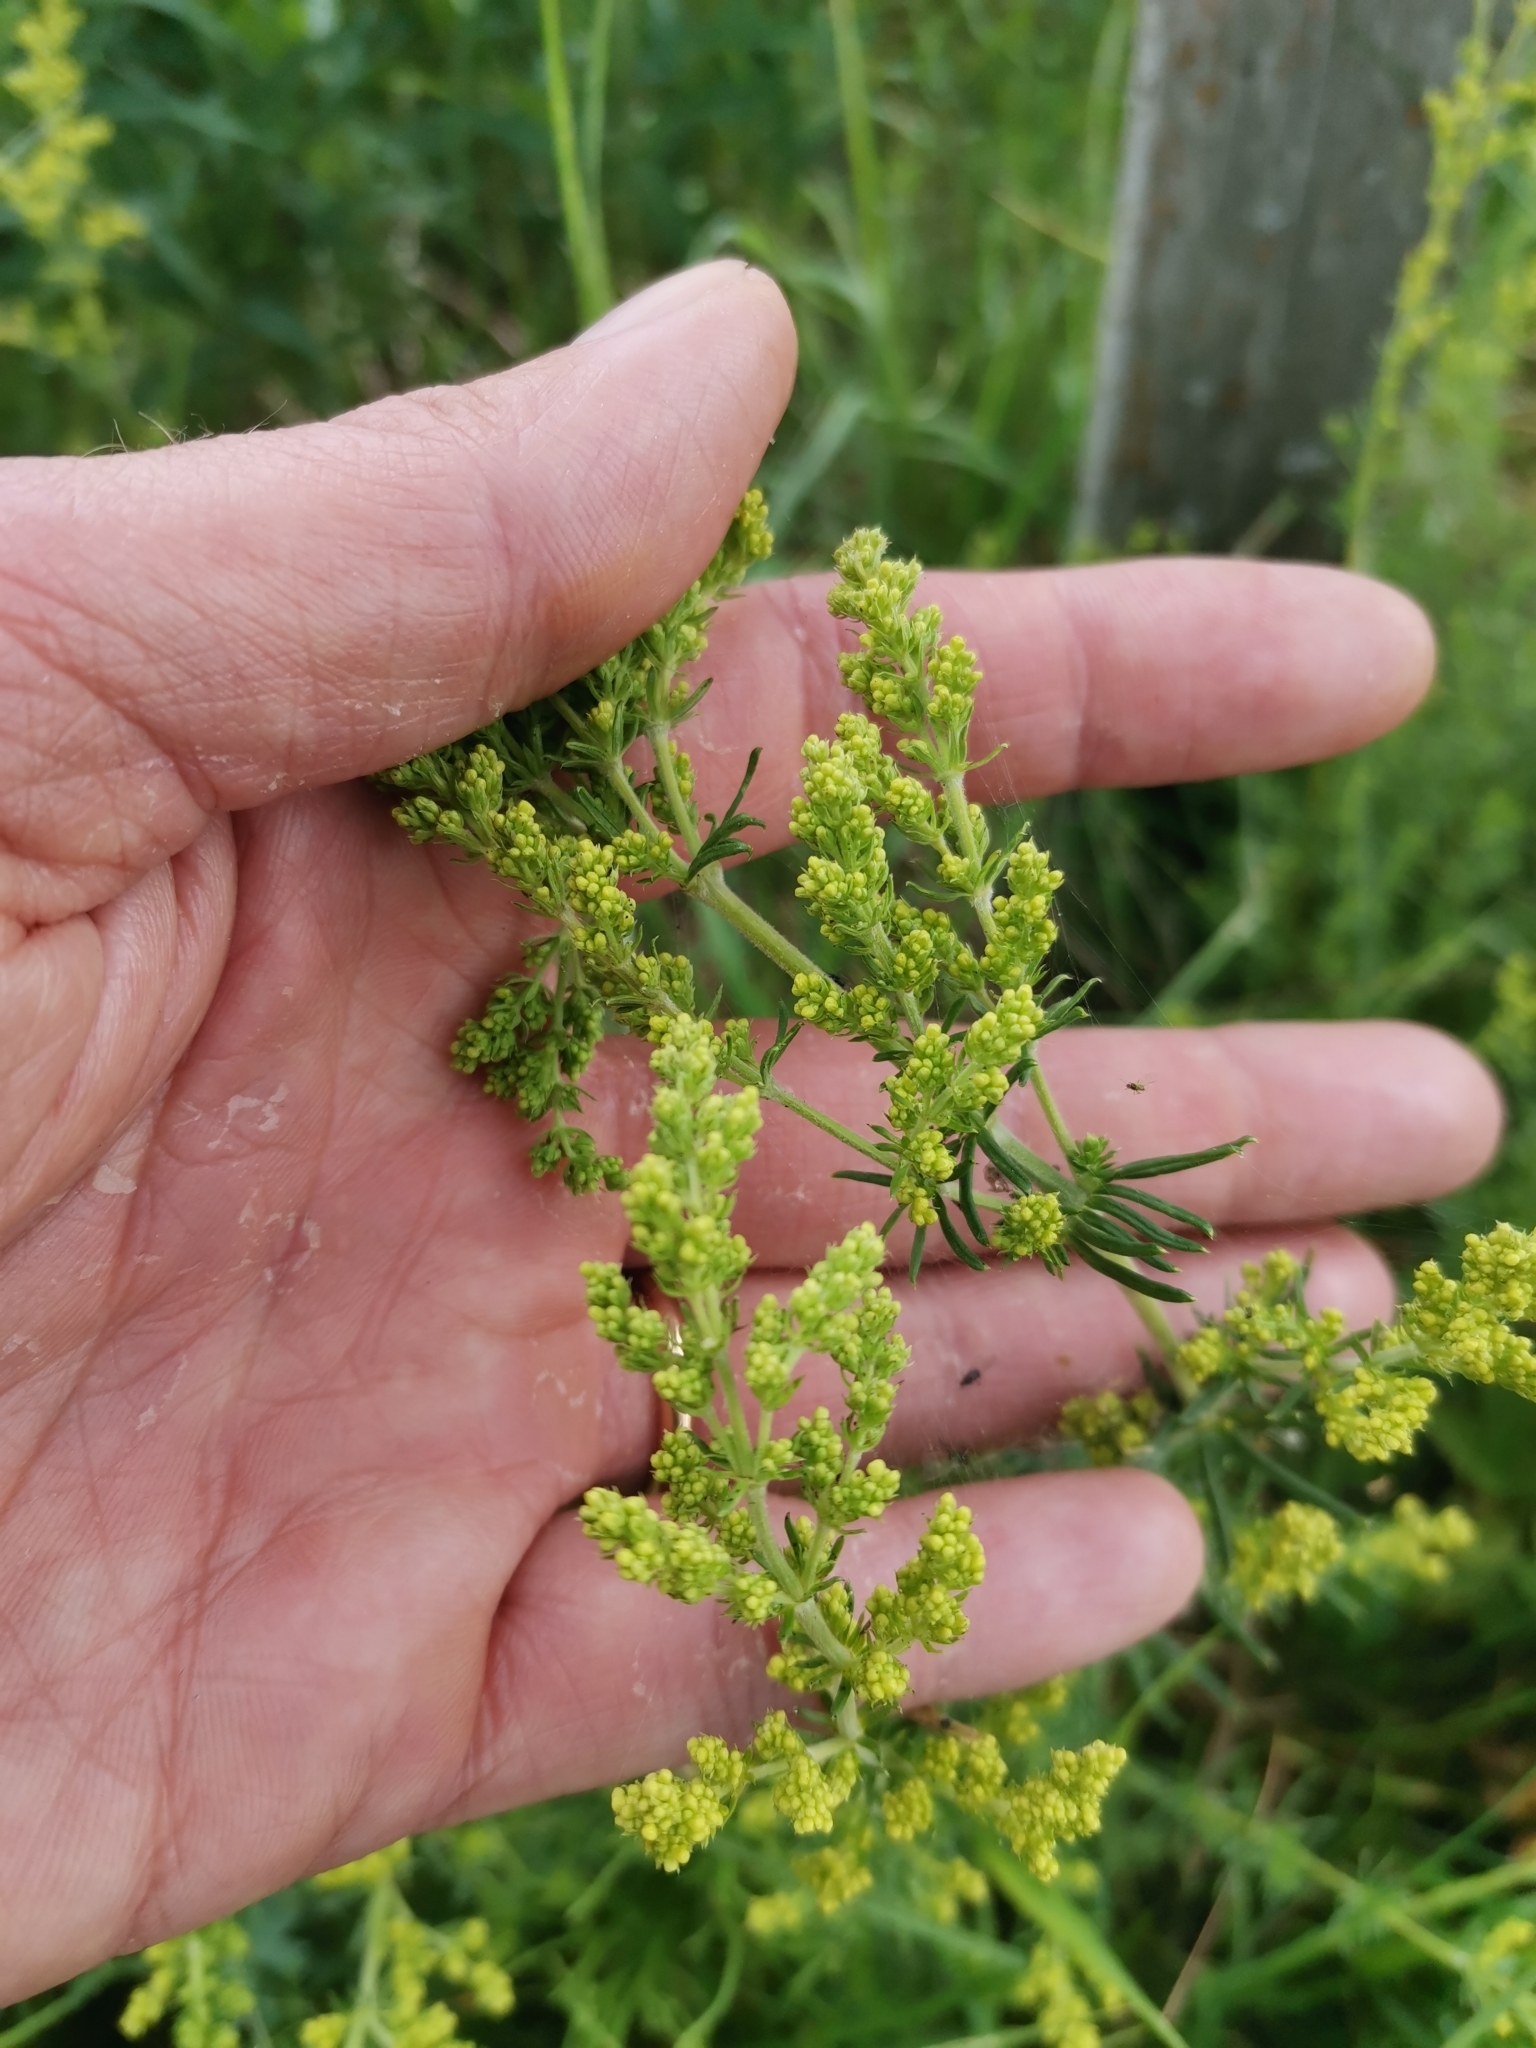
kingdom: Plantae
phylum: Tracheophyta
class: Magnoliopsida
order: Gentianales
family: Rubiaceae
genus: Galium
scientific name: Galium verum
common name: Lady's bedstraw
